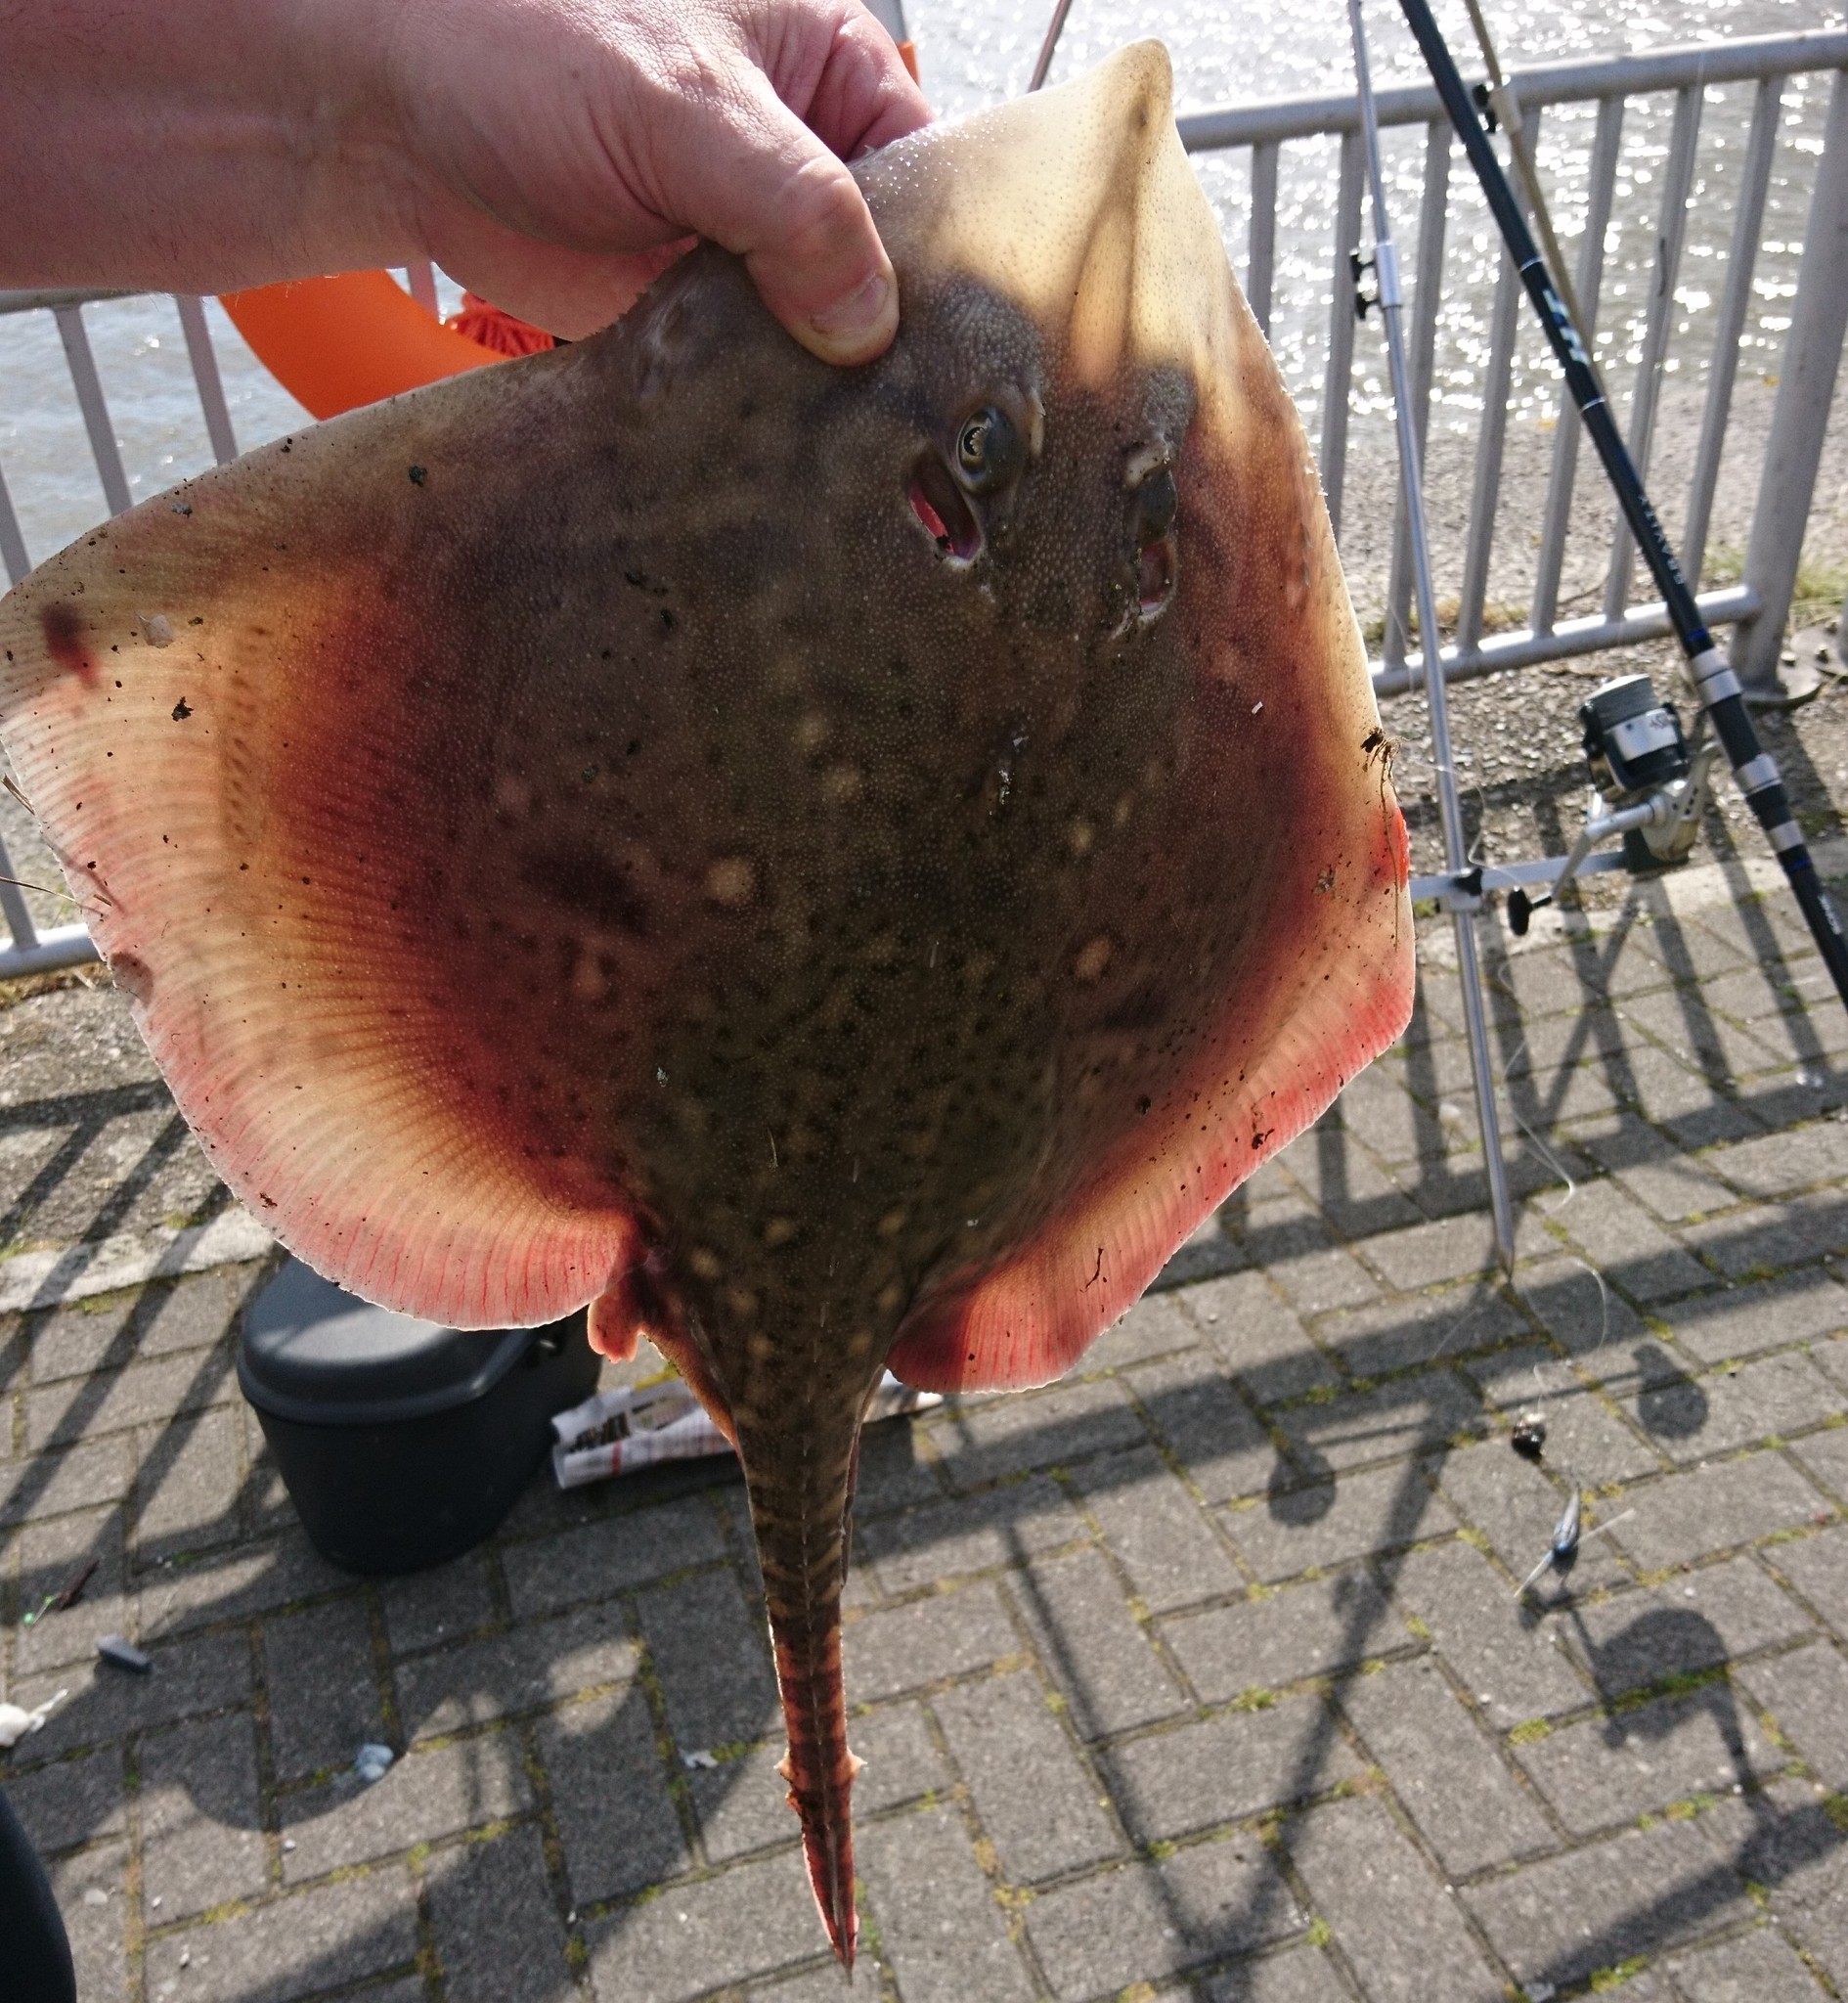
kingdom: Animalia
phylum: Chordata
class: Elasmobranchii
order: Rajiformes
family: Rajidae
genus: Raja
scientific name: Raja clavata
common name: Thornback ray
